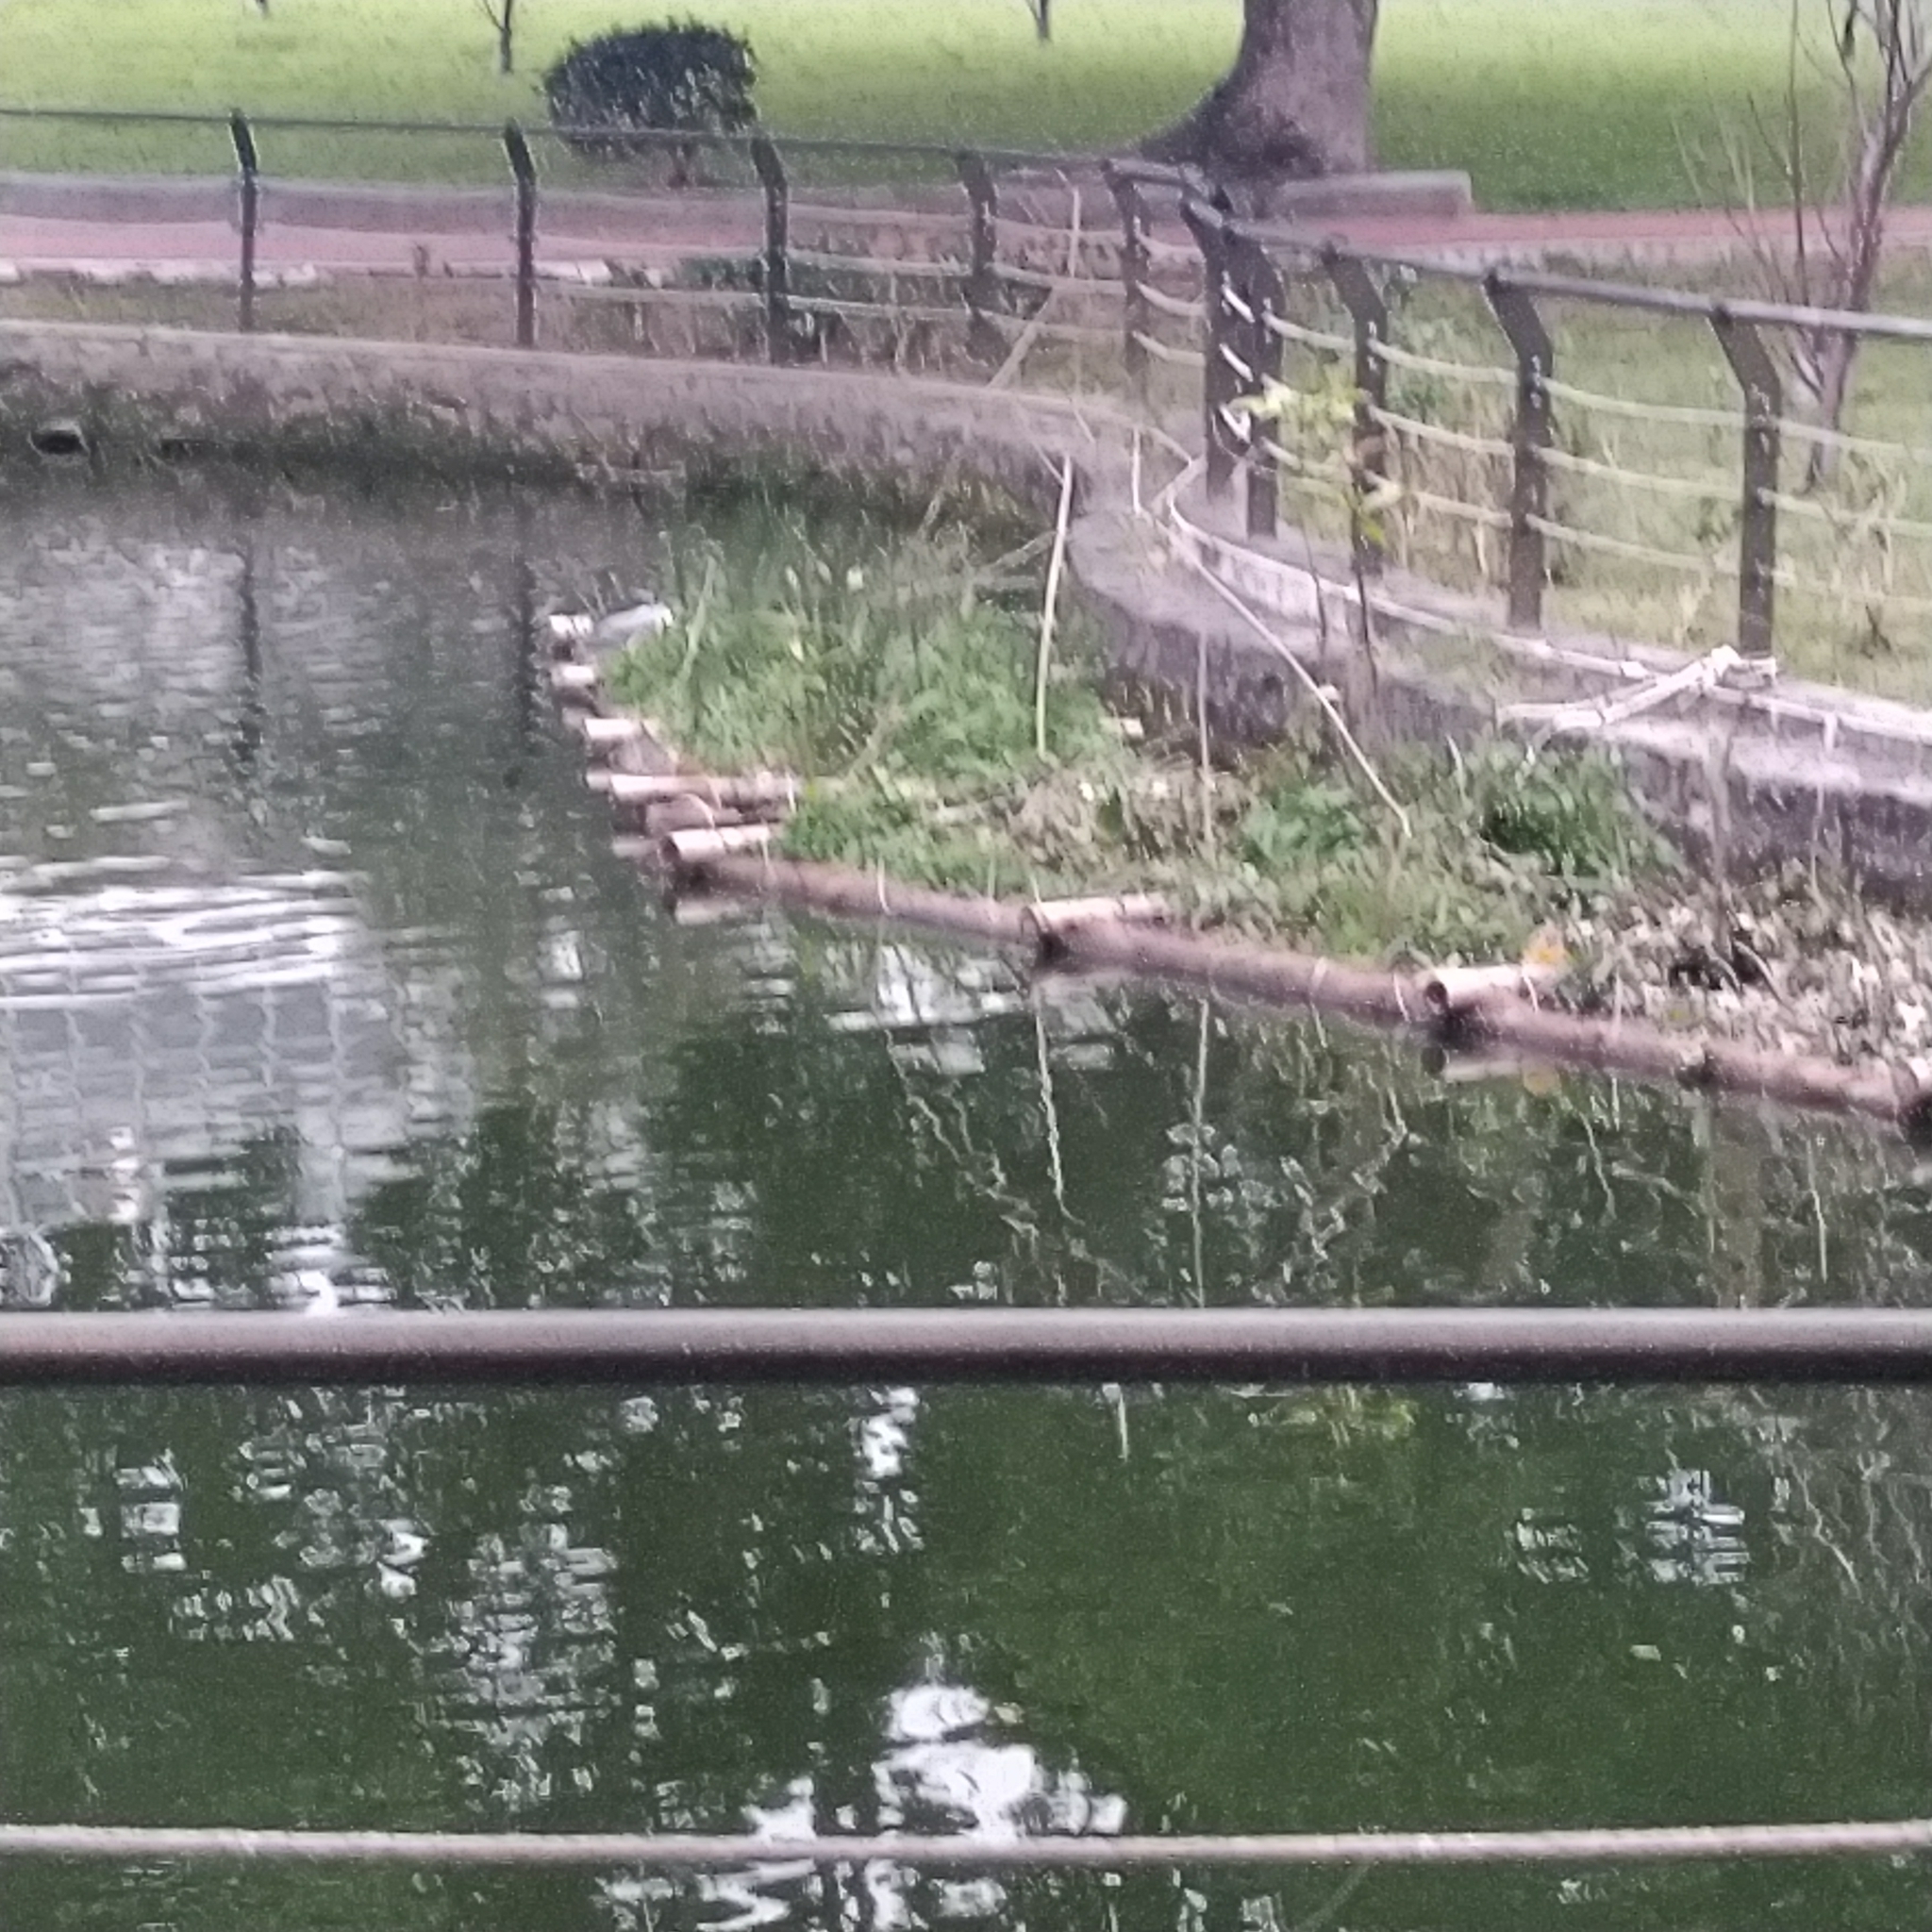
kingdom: Animalia
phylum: Chordata
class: Aves
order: Pelecaniformes
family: Ardeidae
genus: Nycticorax
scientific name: Nycticorax nycticorax
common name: Black-crowned night heron
